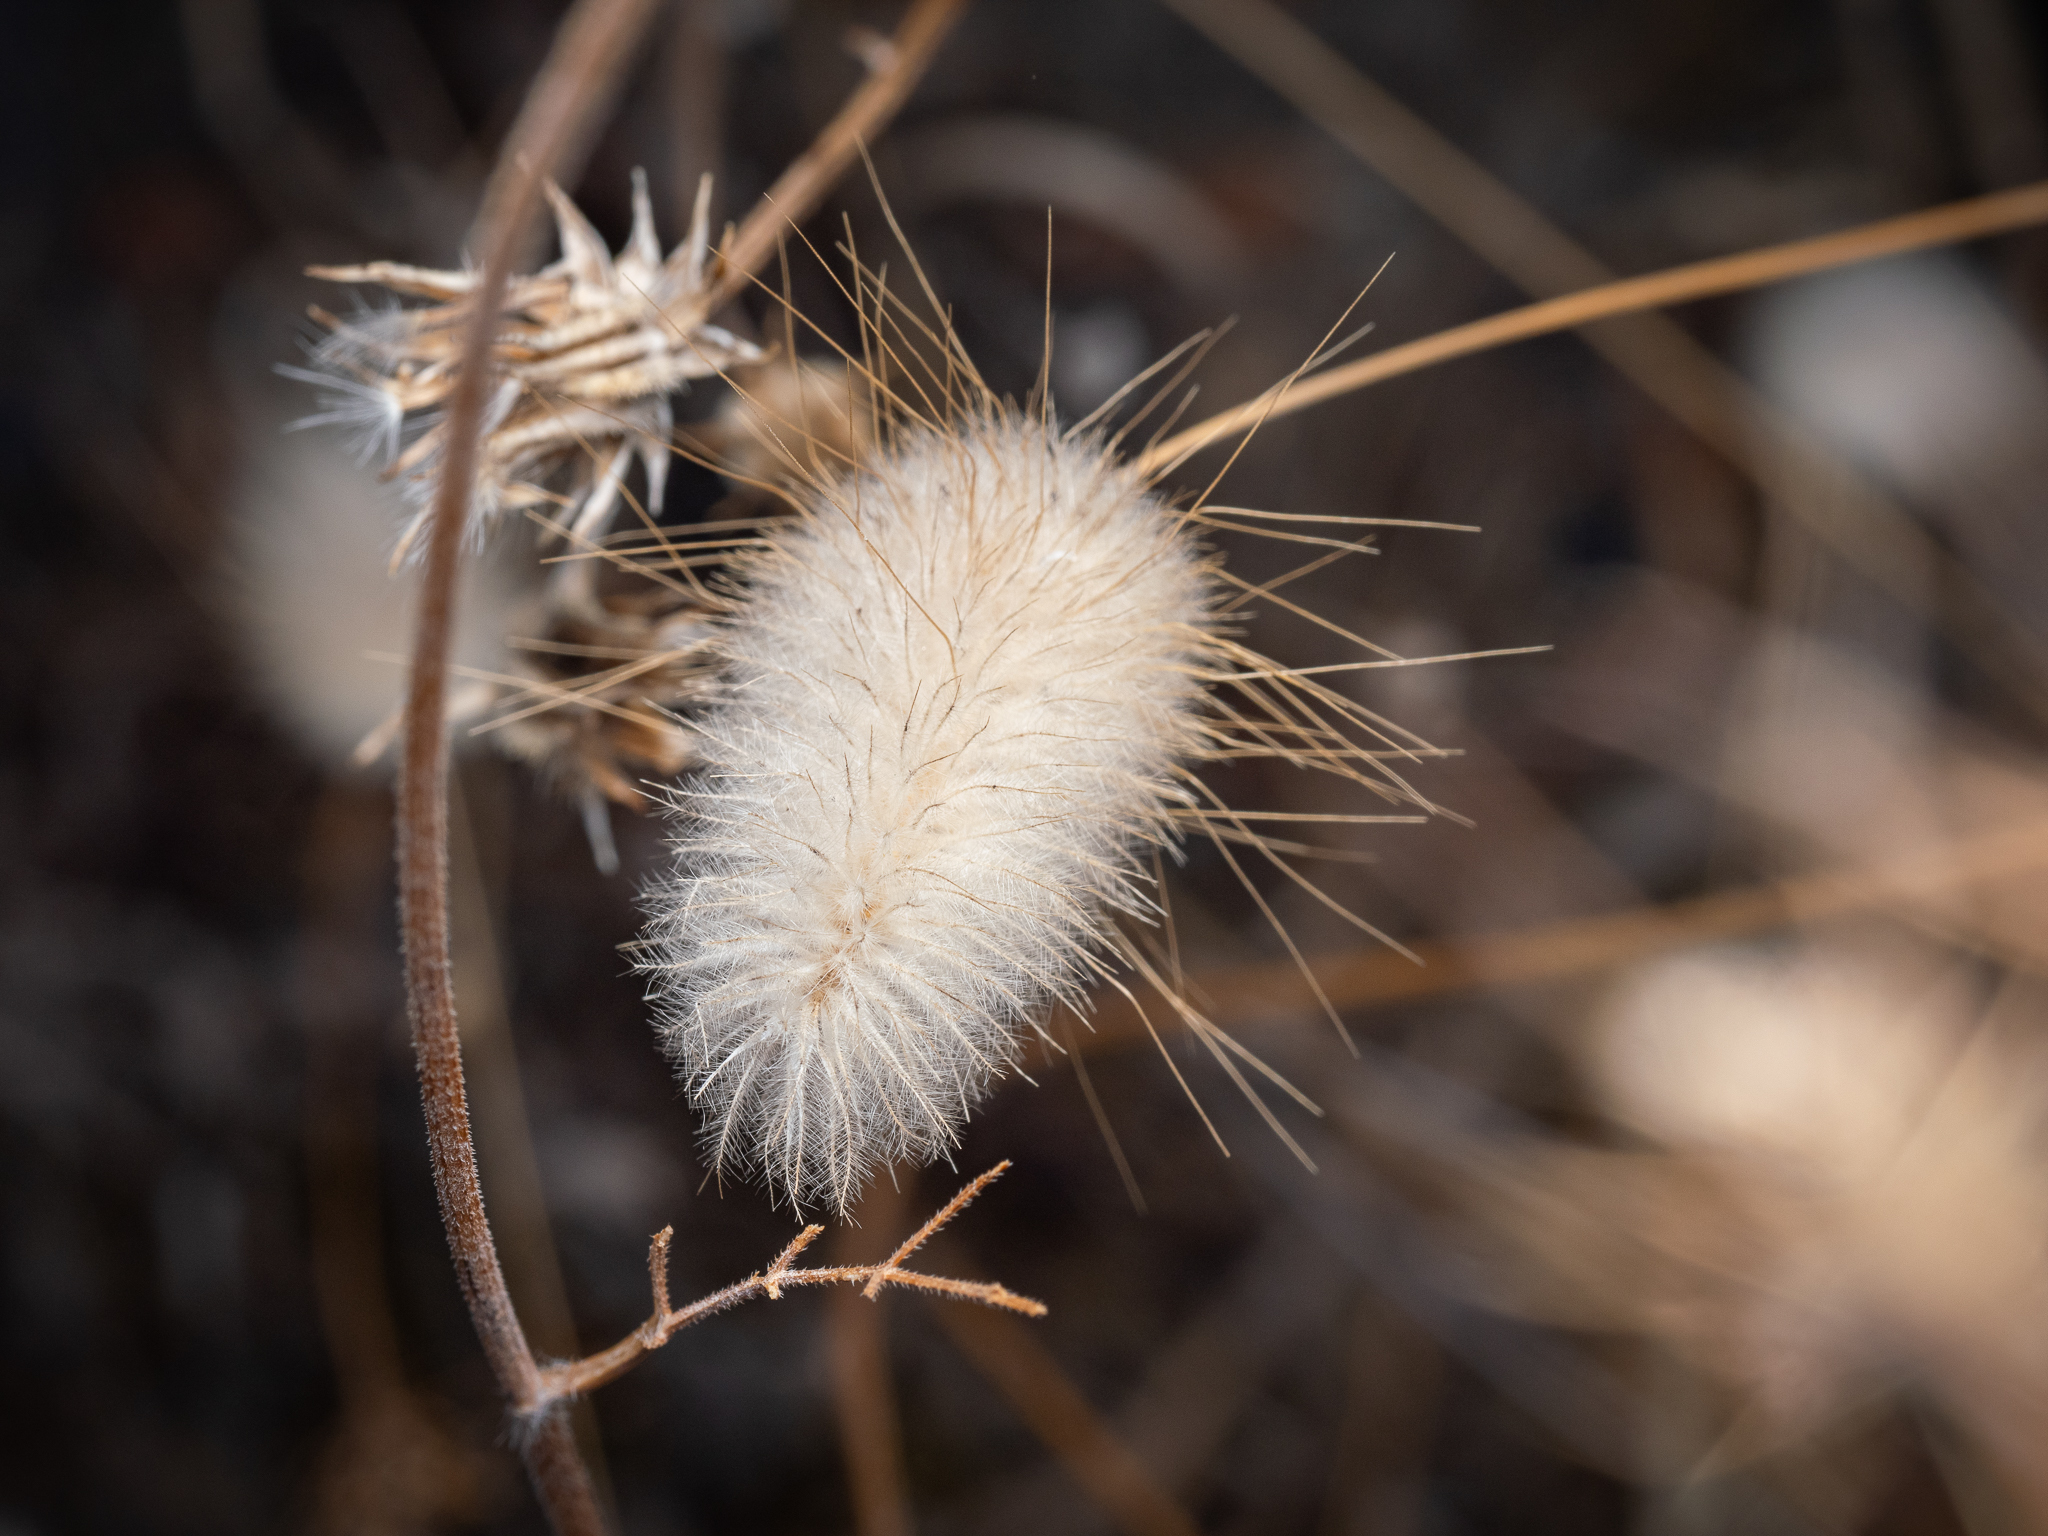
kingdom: Plantae
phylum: Tracheophyta
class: Liliopsida
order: Poales
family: Poaceae
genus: Lagurus
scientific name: Lagurus ovatus
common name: Hare's-tail
